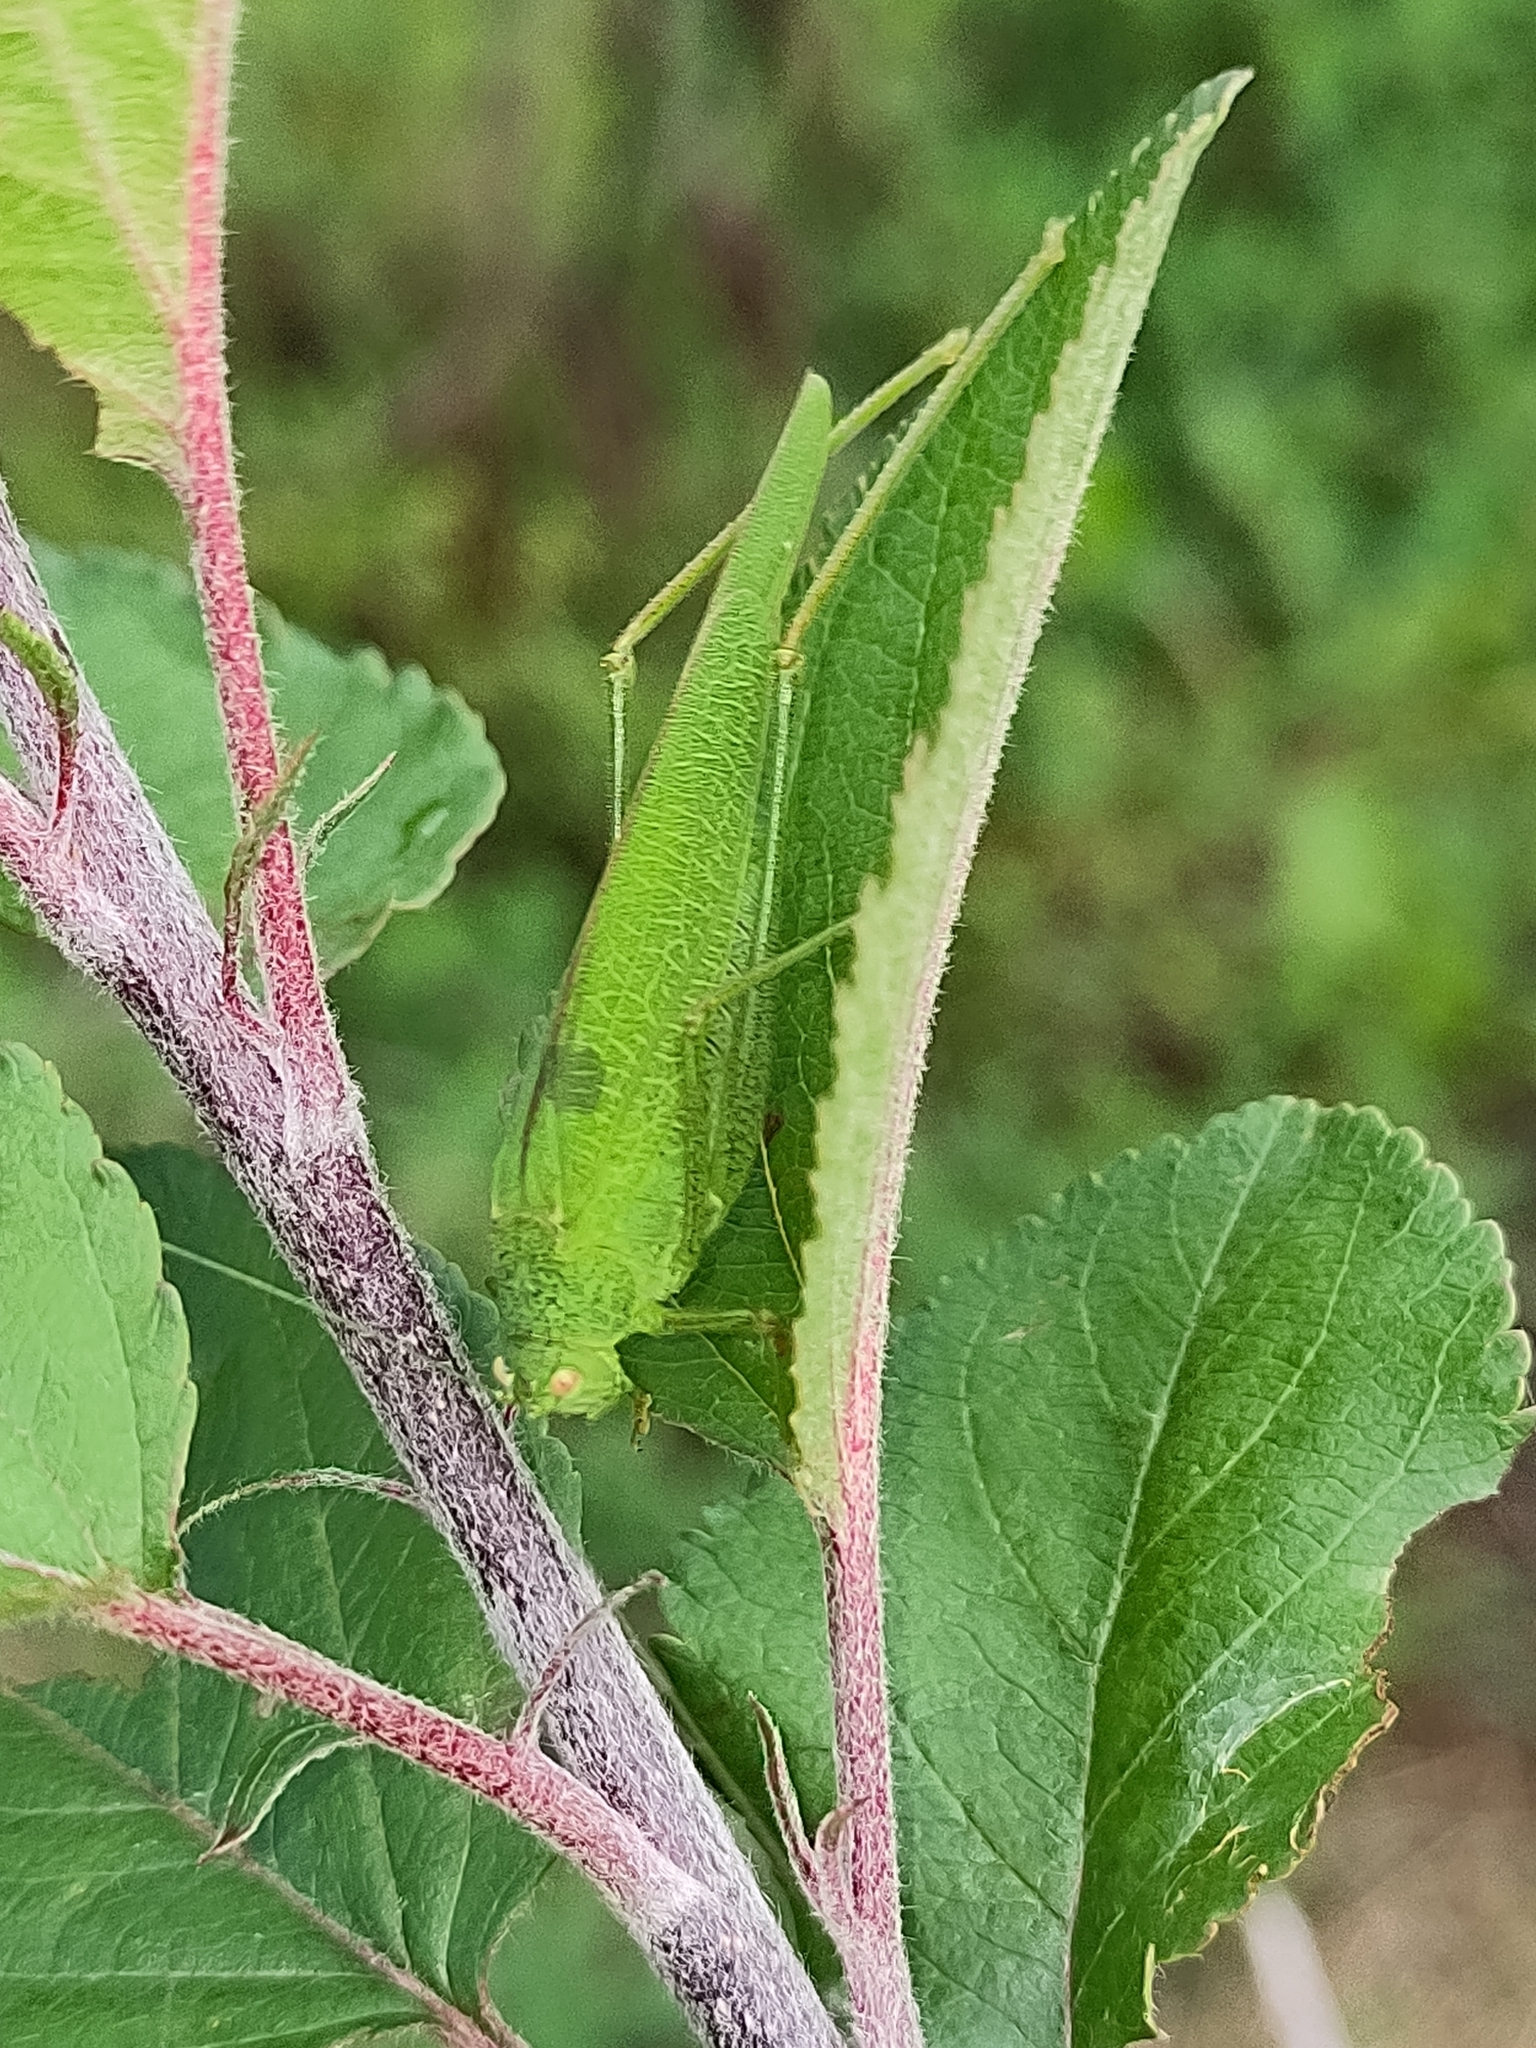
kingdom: Animalia
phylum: Arthropoda
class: Insecta
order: Orthoptera
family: Tettigoniidae
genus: Phaneroptera
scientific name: Phaneroptera nana
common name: Southern sickle bush-cricket
